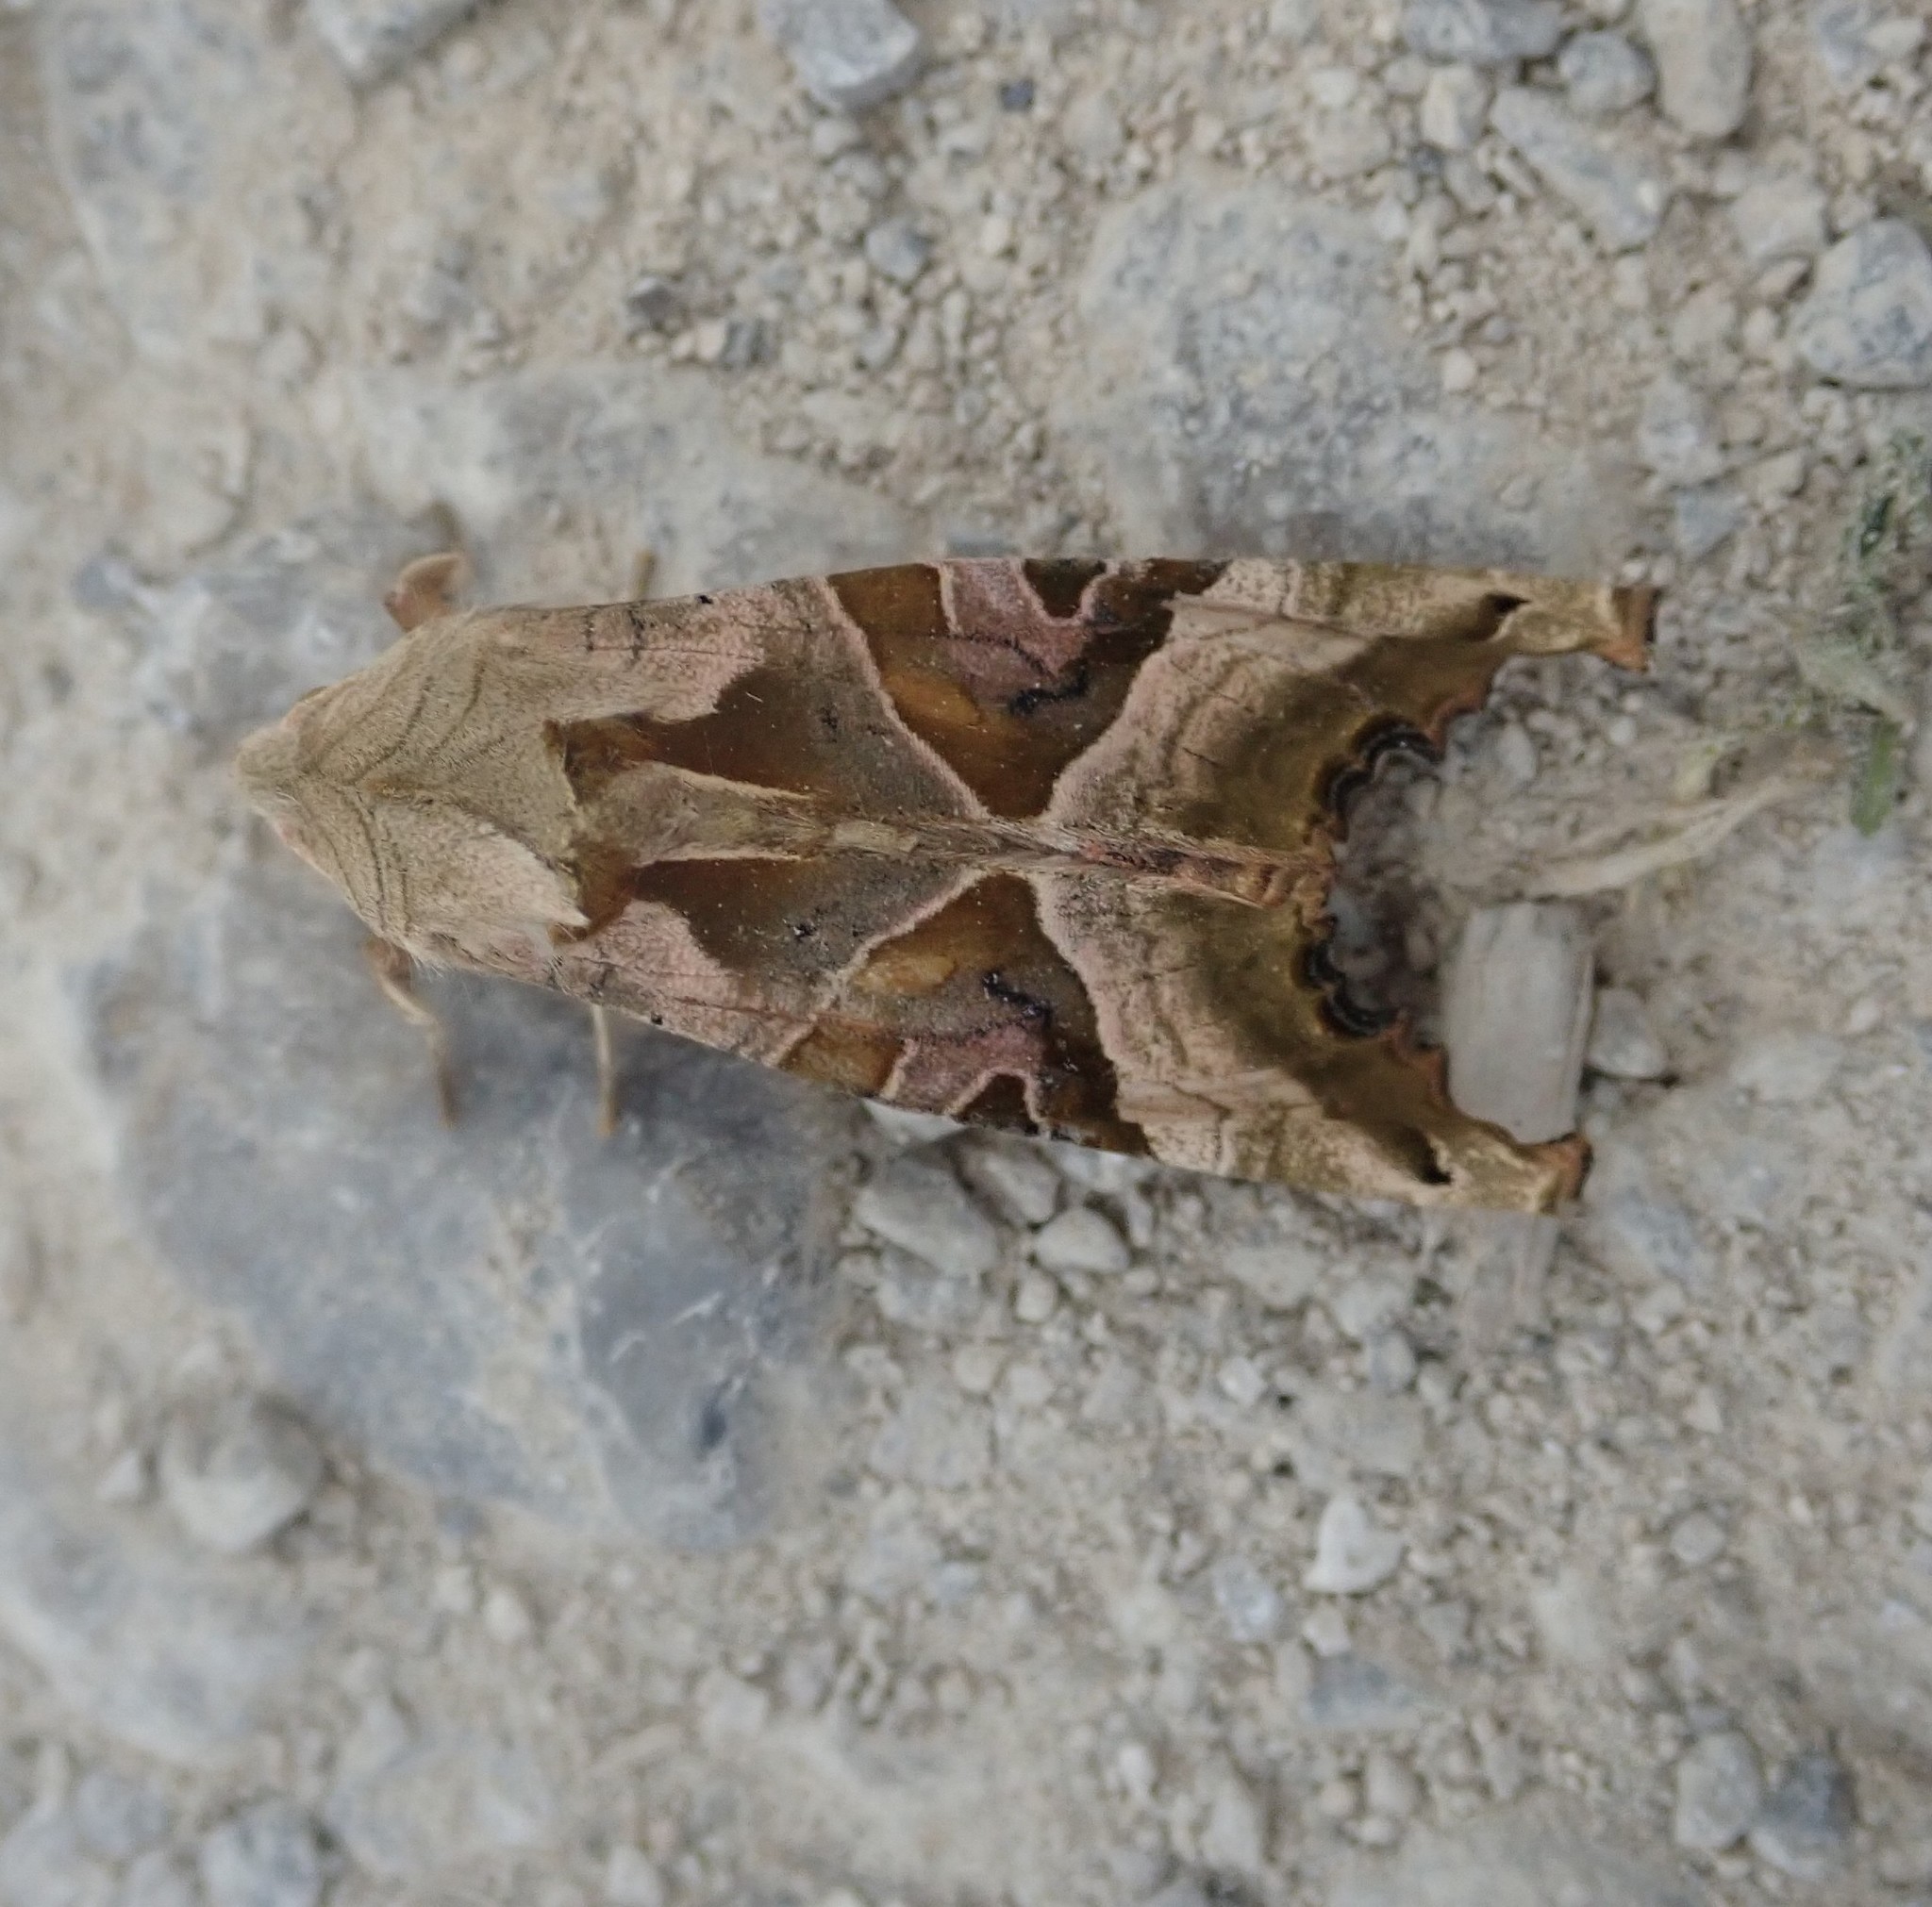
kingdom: Animalia
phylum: Arthropoda
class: Insecta
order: Lepidoptera
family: Noctuidae
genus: Phlogophora
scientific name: Phlogophora meticulosa
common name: Angle shades
